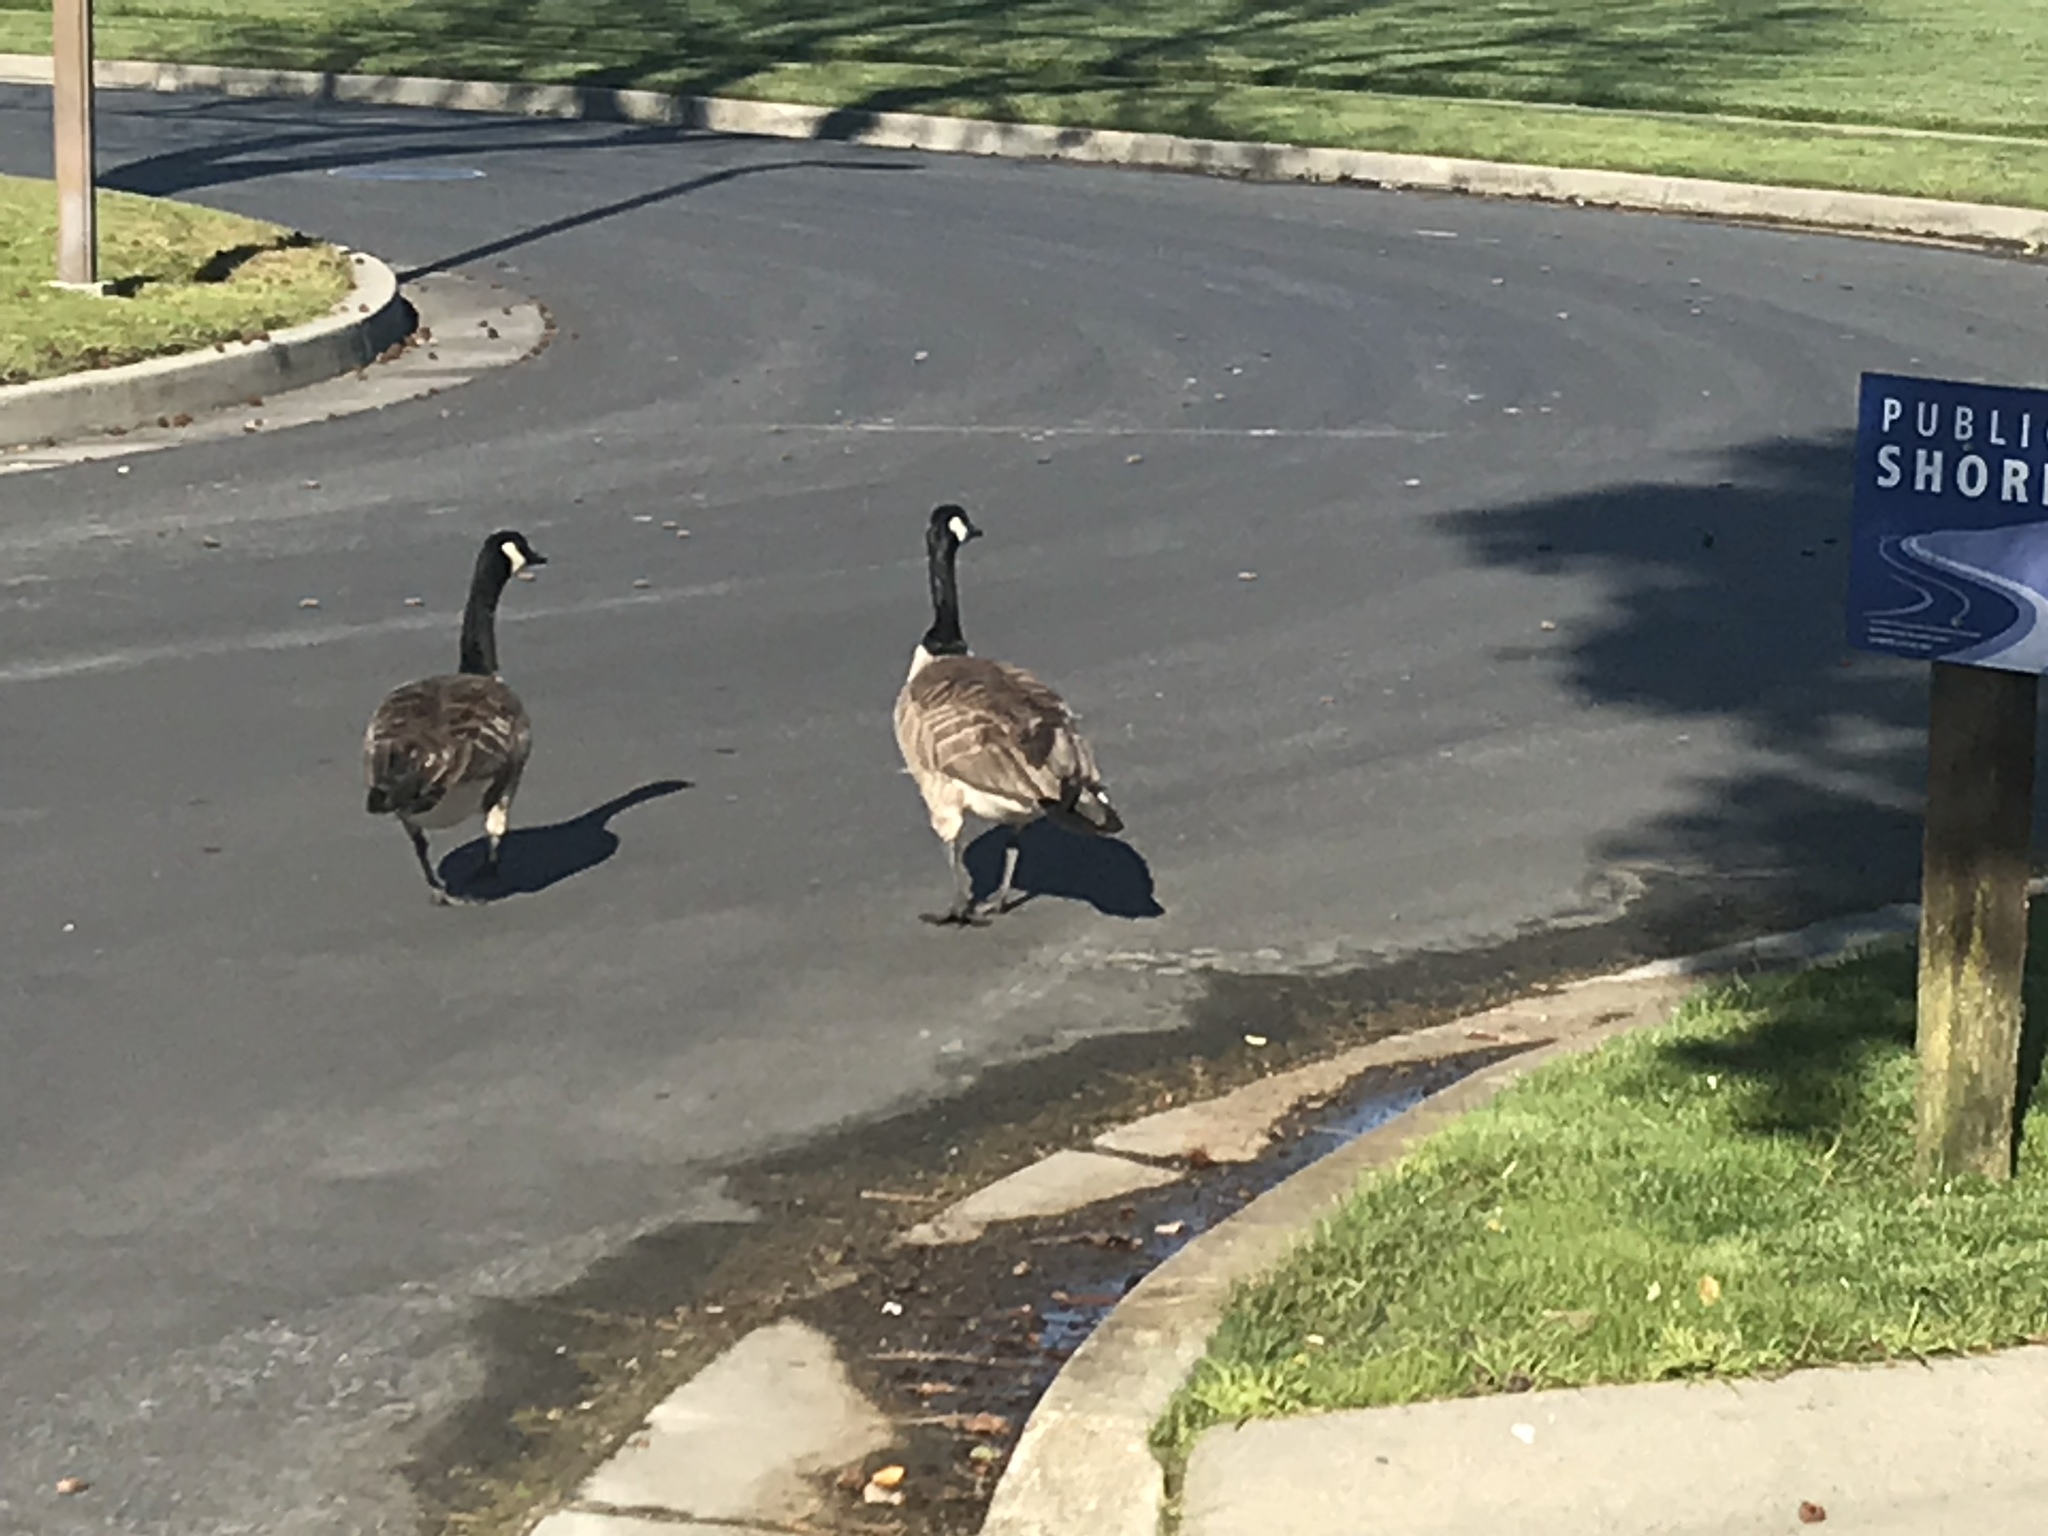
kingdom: Animalia
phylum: Chordata
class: Aves
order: Anseriformes
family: Anatidae
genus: Branta
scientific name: Branta canadensis
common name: Canada goose
